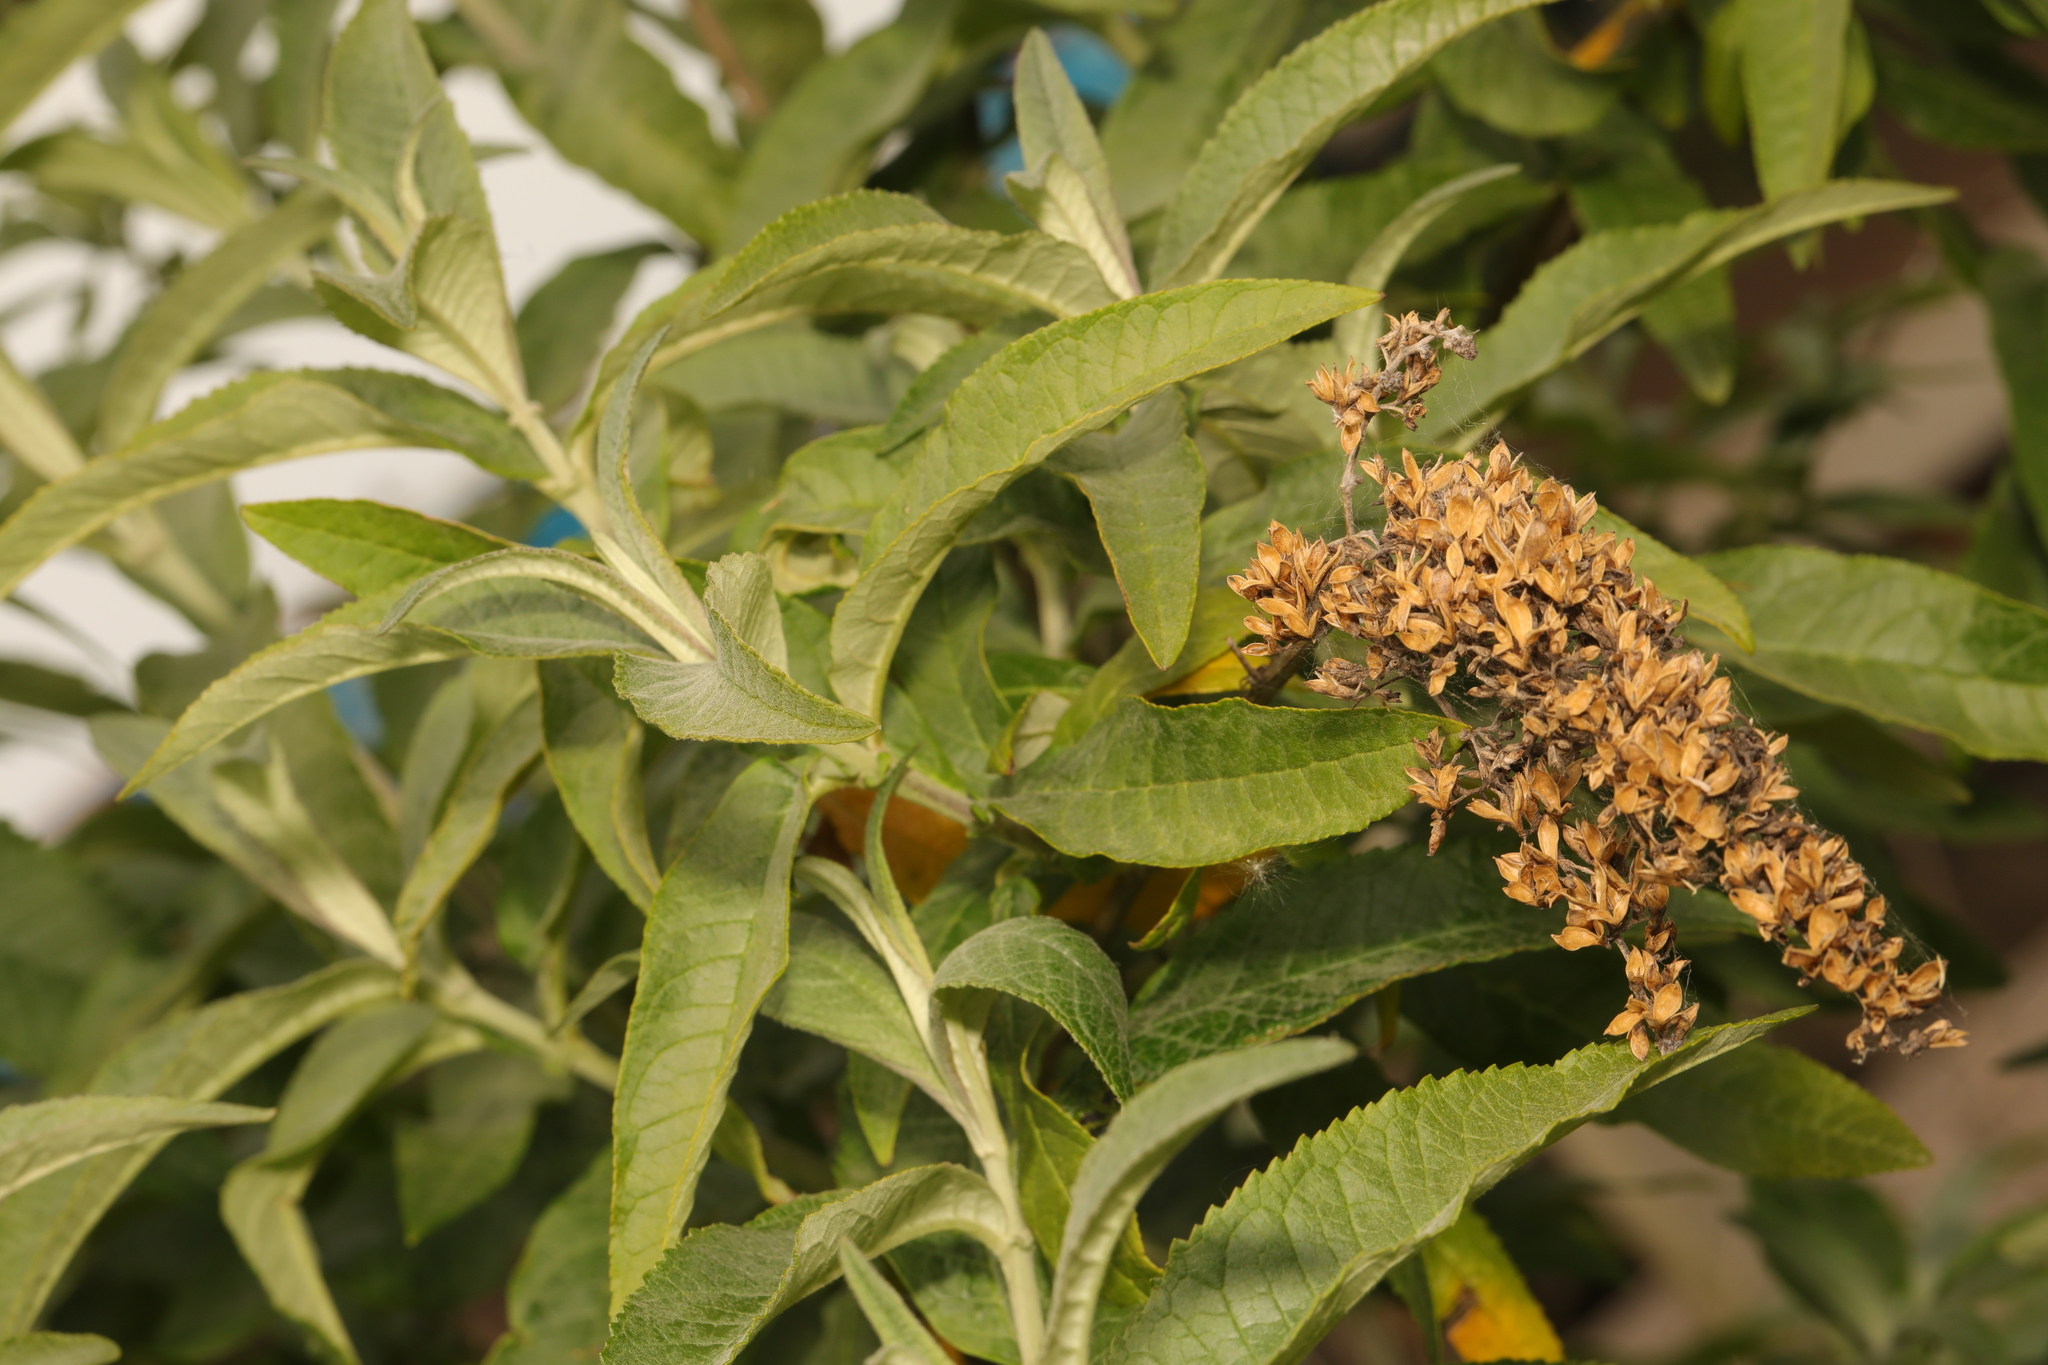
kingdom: Plantae
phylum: Tracheophyta
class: Magnoliopsida
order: Lamiales
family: Scrophulariaceae
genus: Buddleja
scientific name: Buddleja davidii
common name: Butterfly-bush
